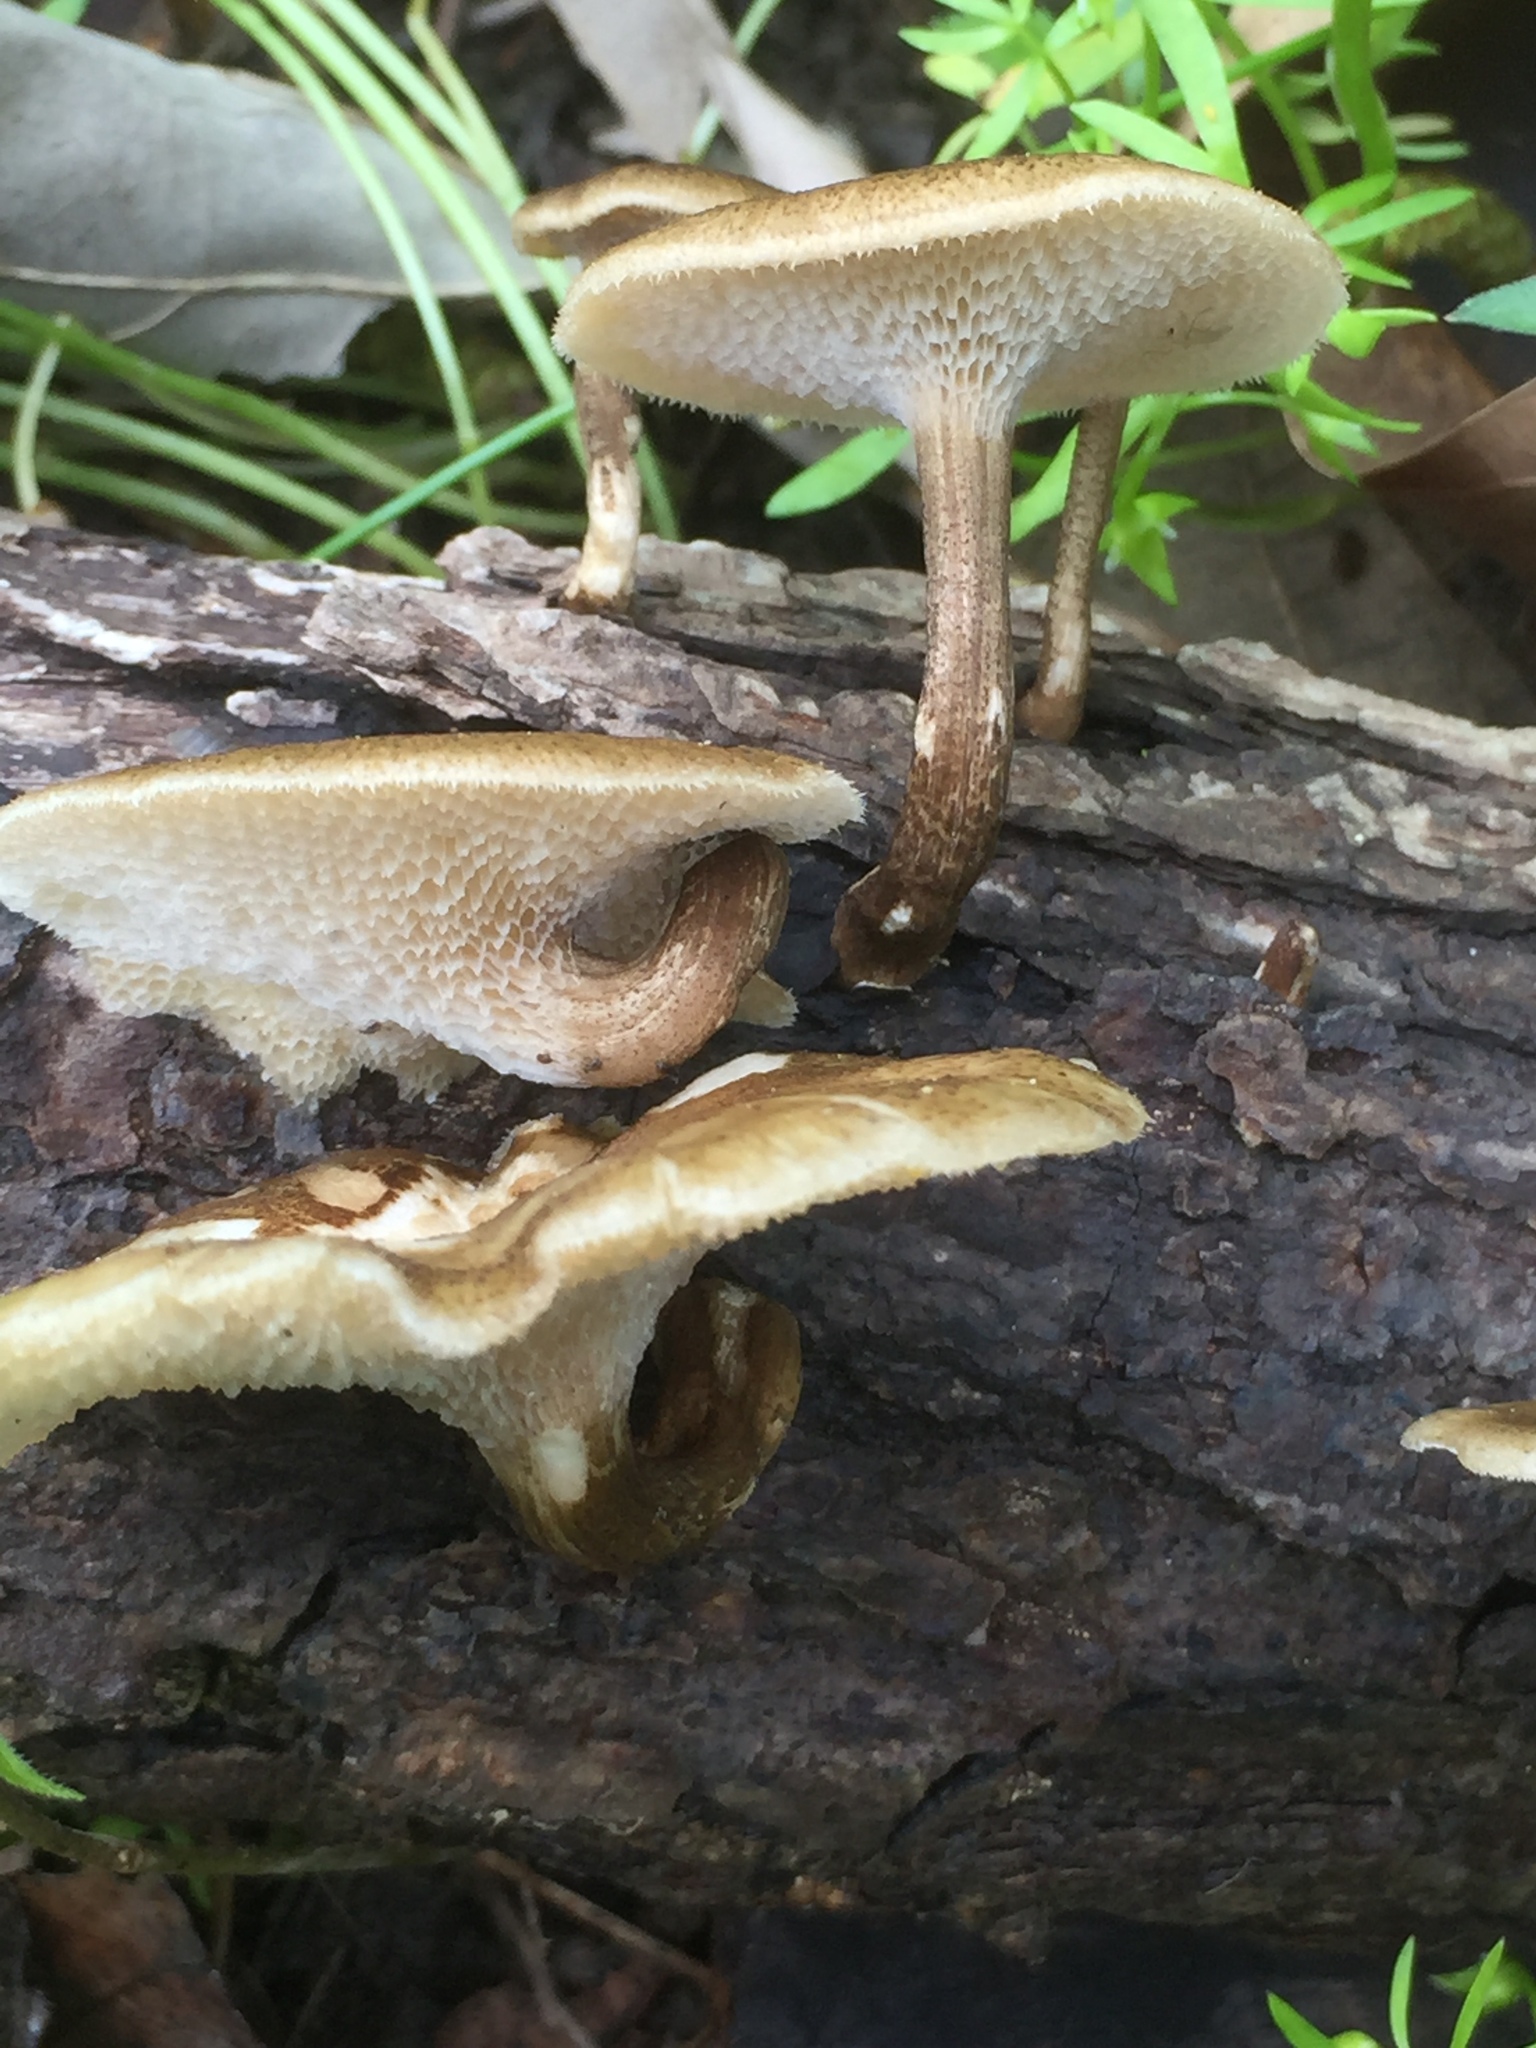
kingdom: Fungi
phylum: Basidiomycota
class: Agaricomycetes
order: Polyporales
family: Polyporaceae
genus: Lentinus
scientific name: Lentinus arcularius
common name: Spring polypore
